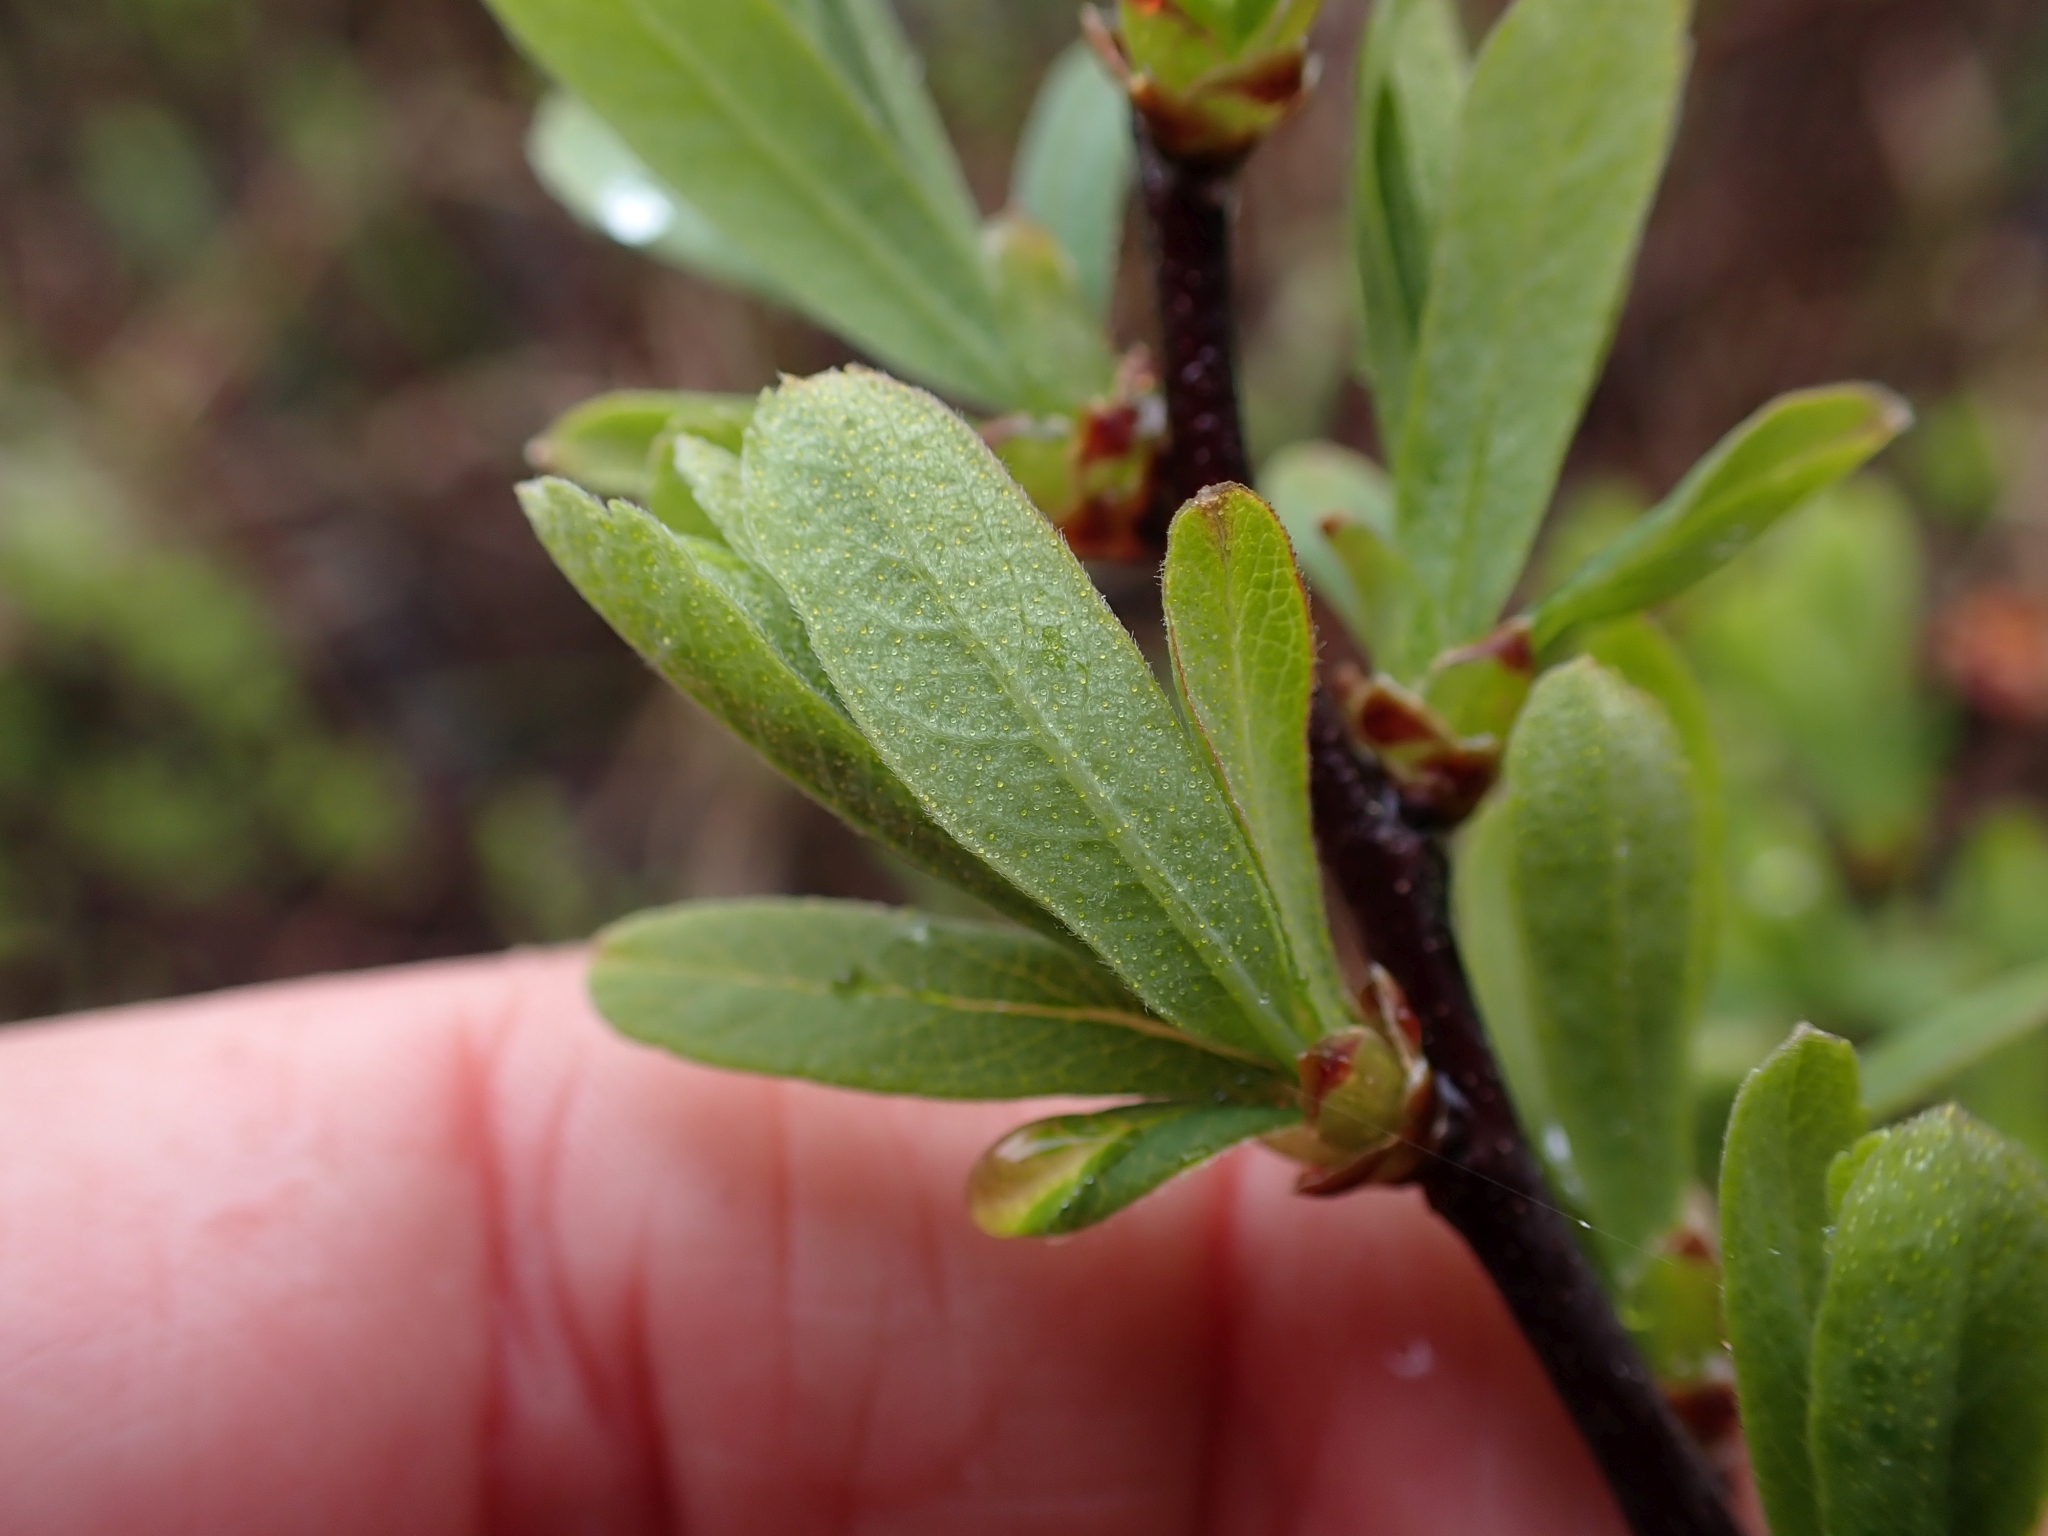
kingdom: Plantae
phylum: Tracheophyta
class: Magnoliopsida
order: Fagales
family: Myricaceae
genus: Myrica
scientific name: Myrica gale
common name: Sweet gale
